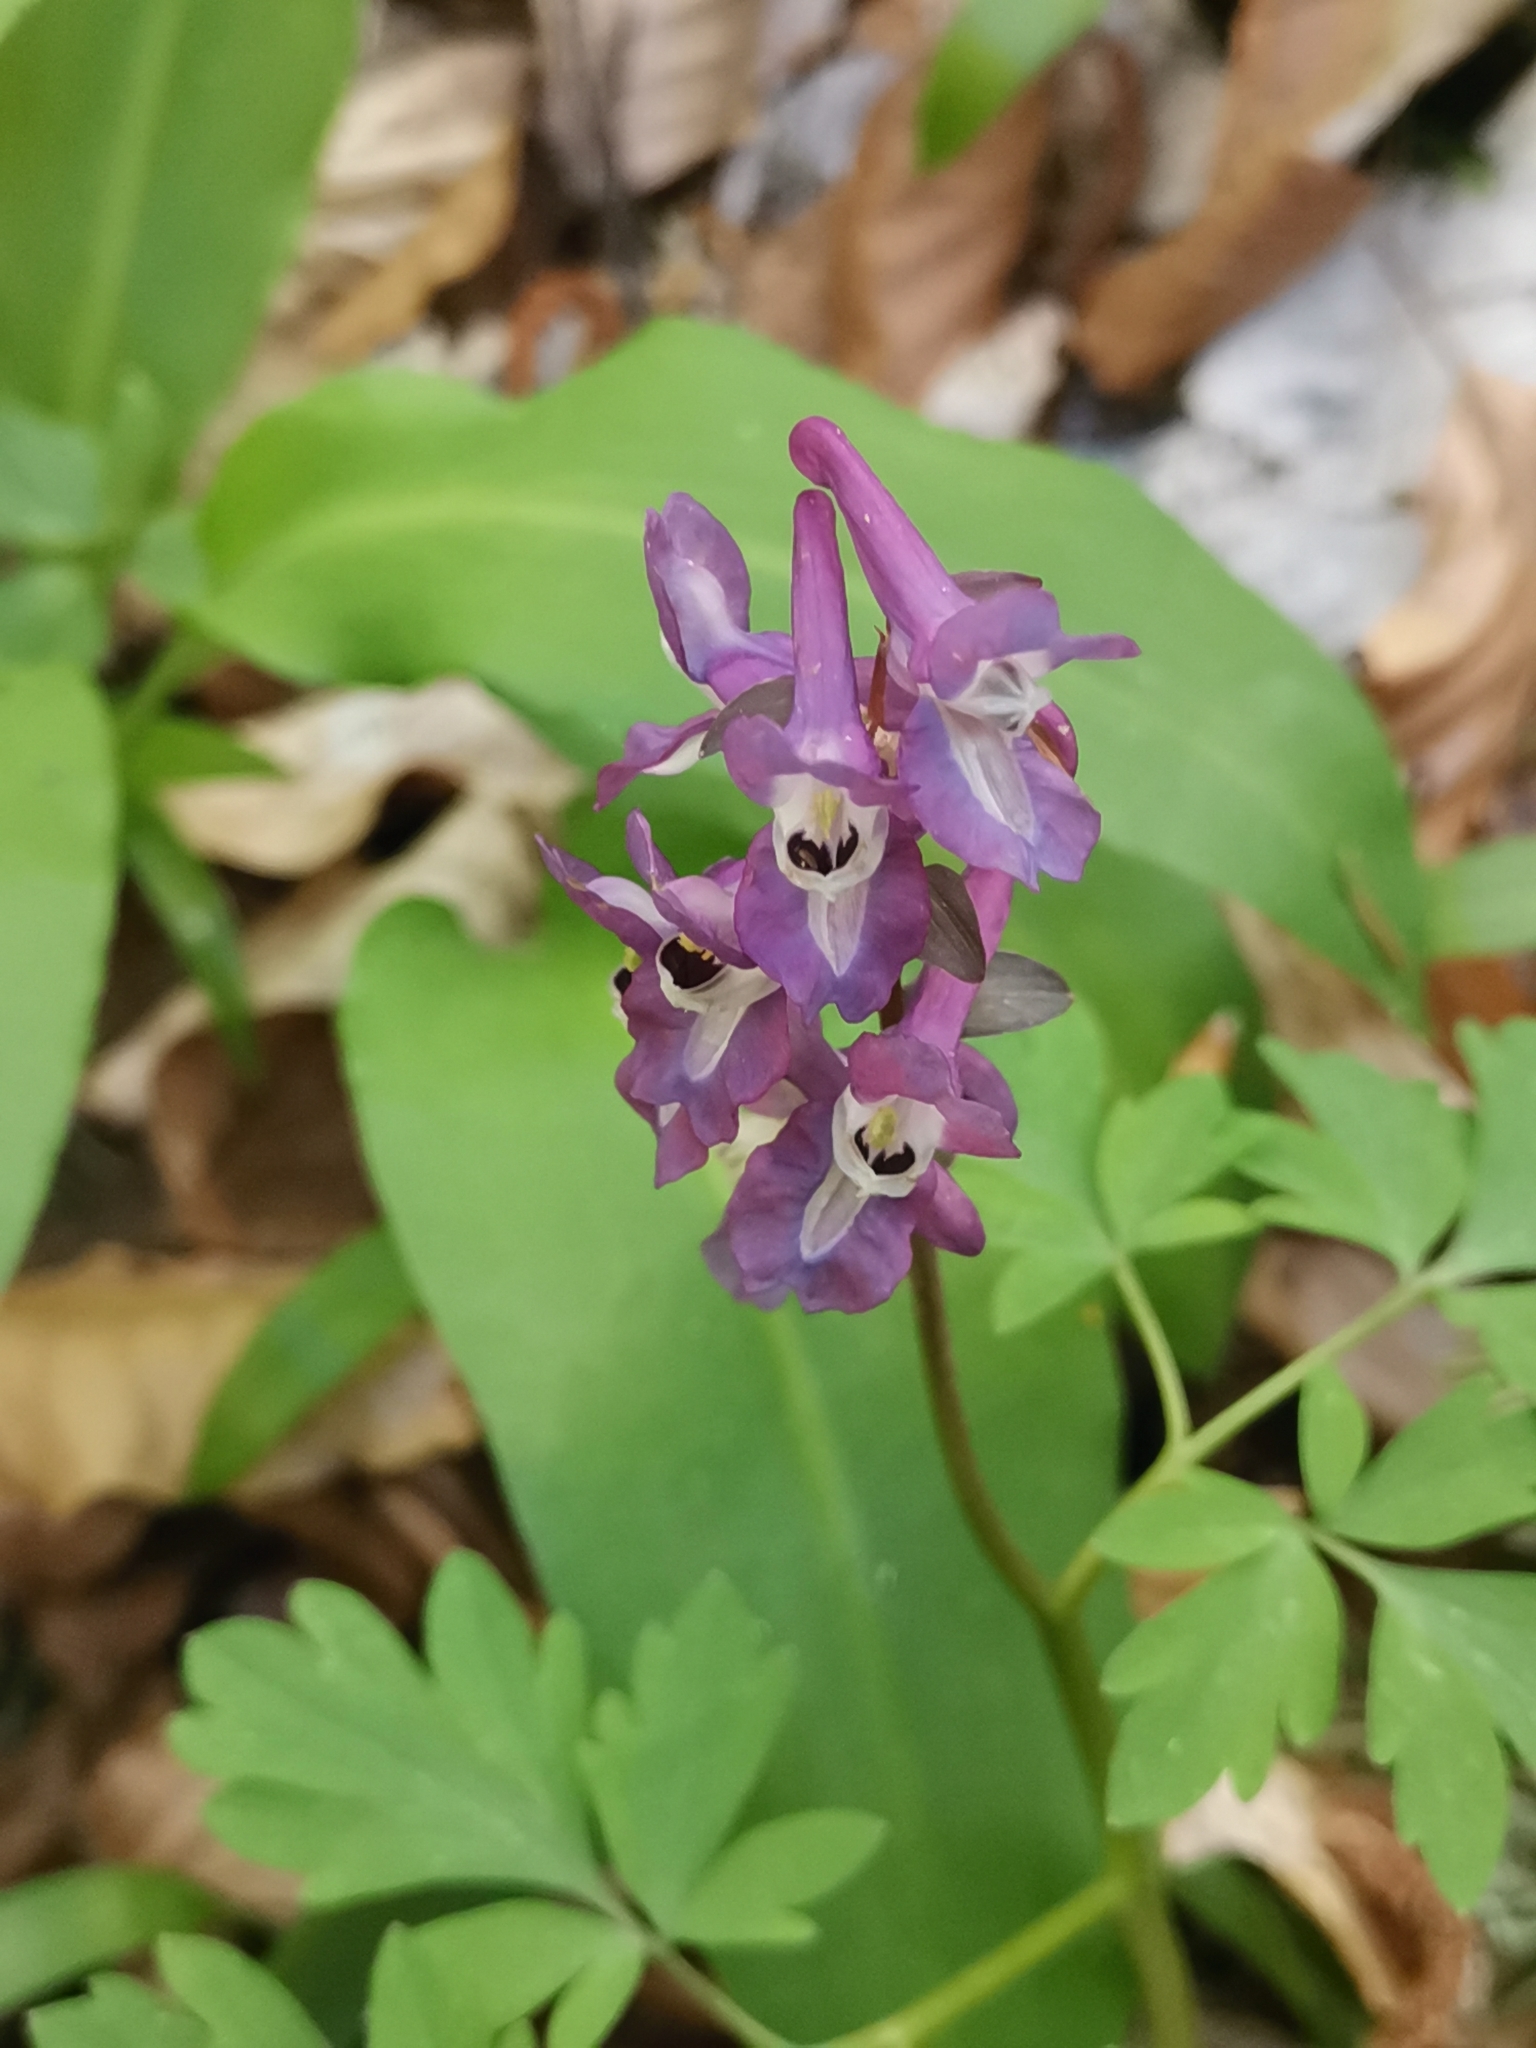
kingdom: Plantae
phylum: Tracheophyta
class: Magnoliopsida
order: Ranunculales
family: Papaveraceae
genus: Corydalis
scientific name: Corydalis cava
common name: Hollowroot
